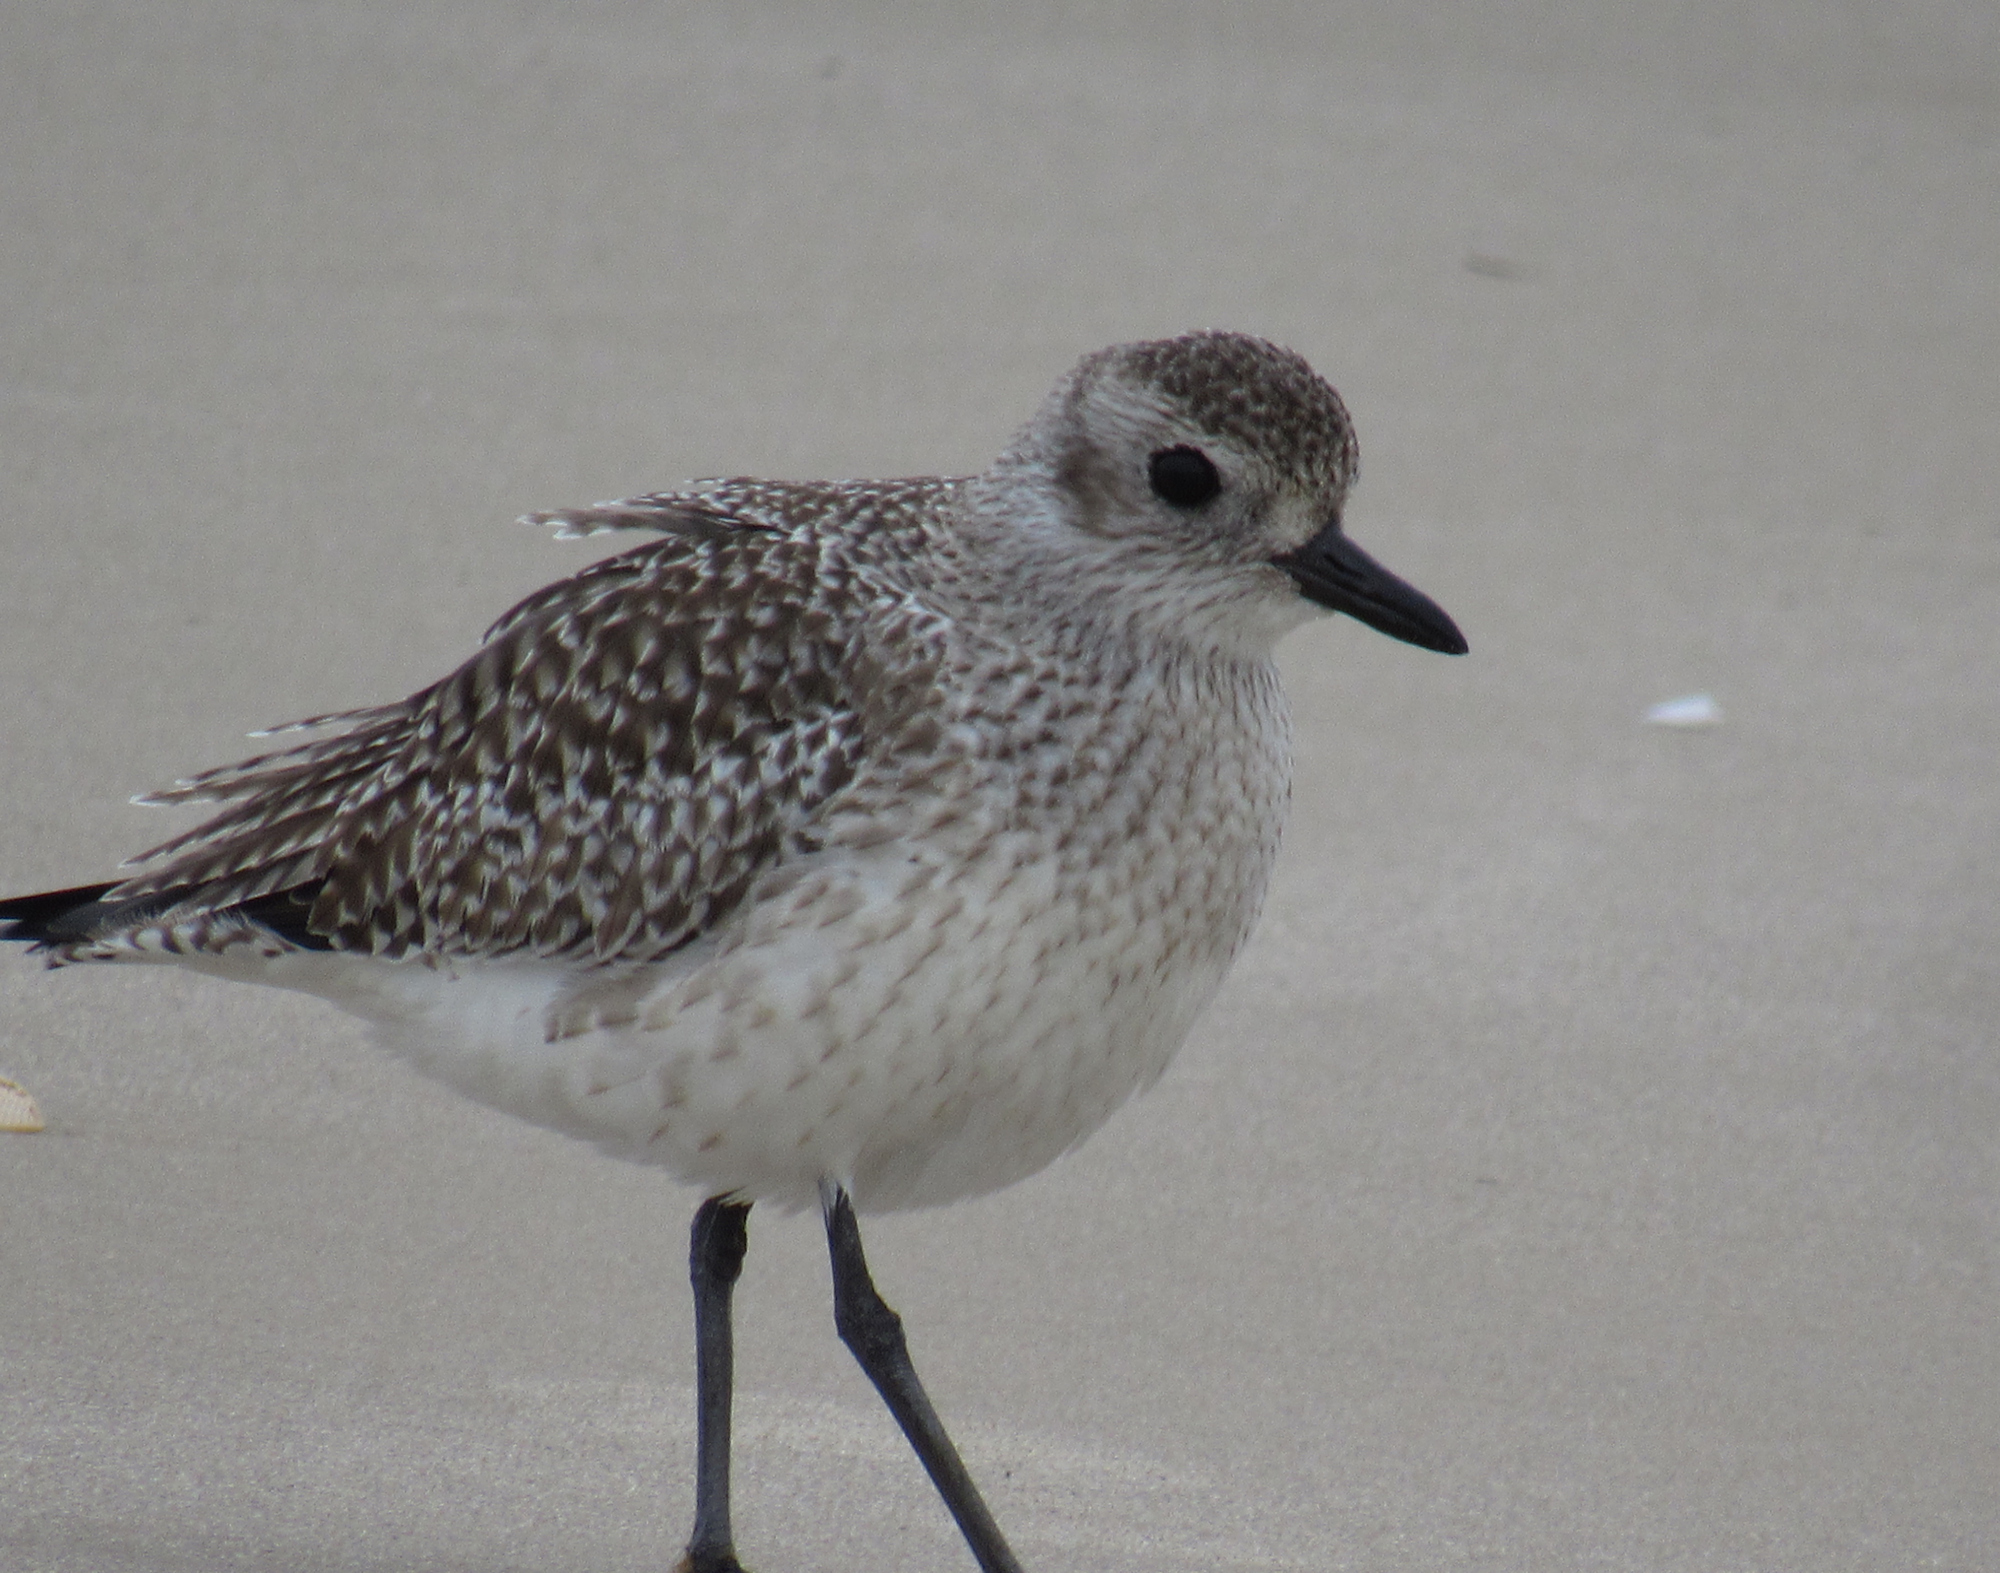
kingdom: Animalia
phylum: Chordata
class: Aves
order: Charadriiformes
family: Charadriidae
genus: Pluvialis
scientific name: Pluvialis squatarola
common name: Grey plover
